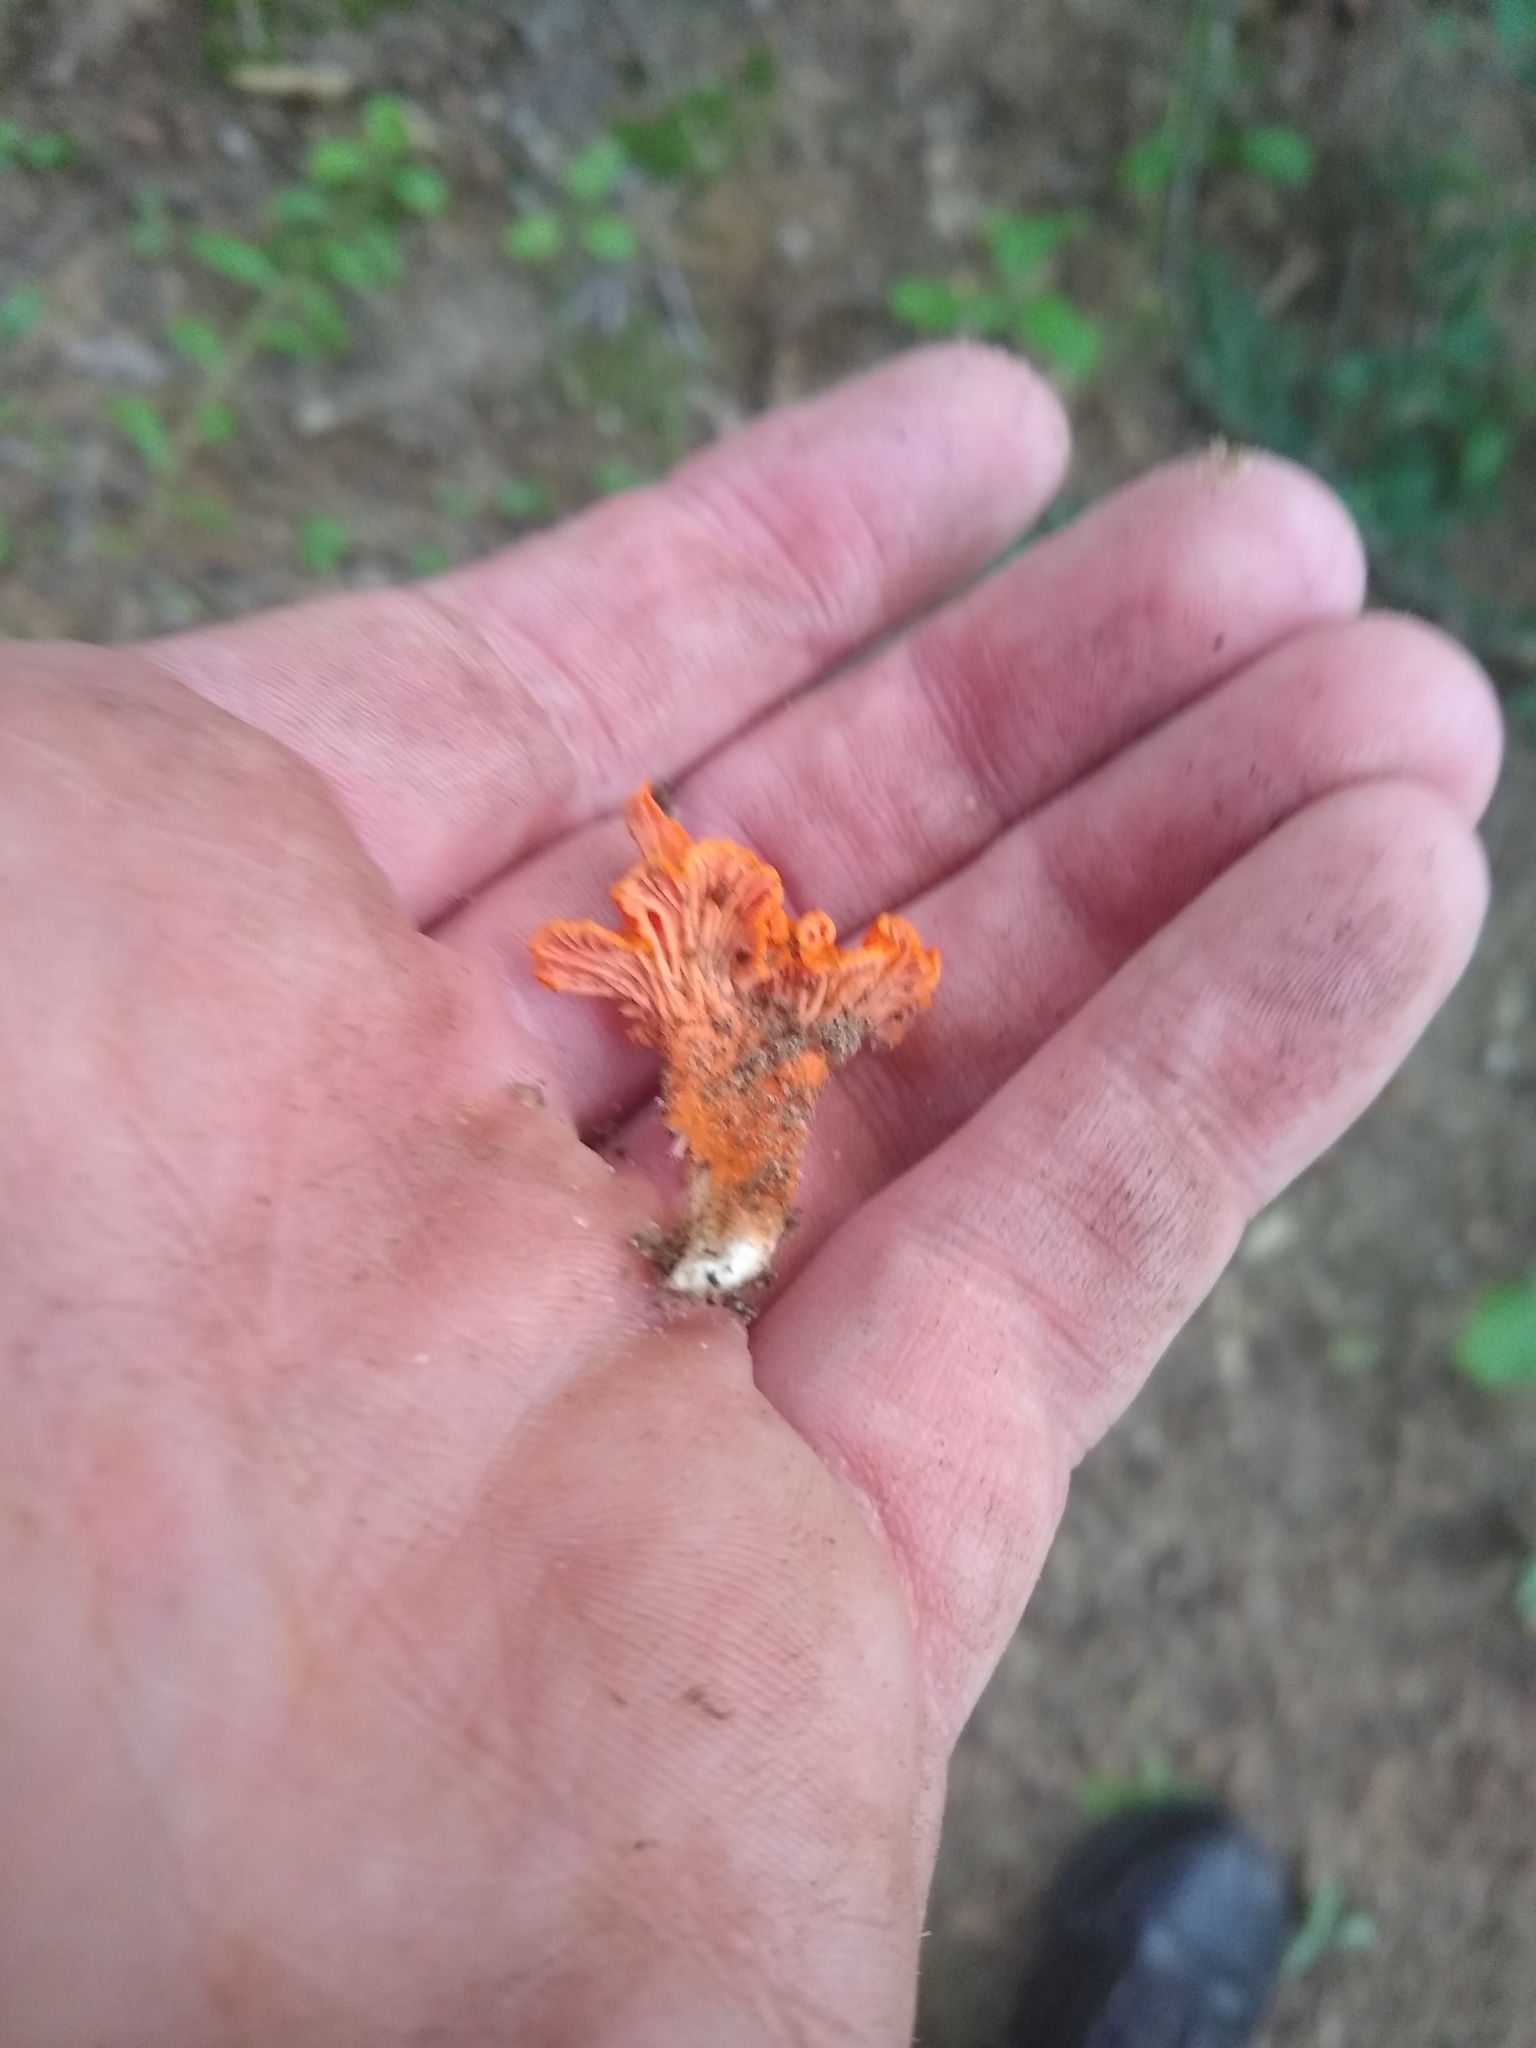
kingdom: Fungi
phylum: Basidiomycota
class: Agaricomycetes
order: Cantharellales
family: Hydnaceae
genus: Cantharellus
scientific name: Cantharellus cinnabarinus
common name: Cinnabar chanterelle
